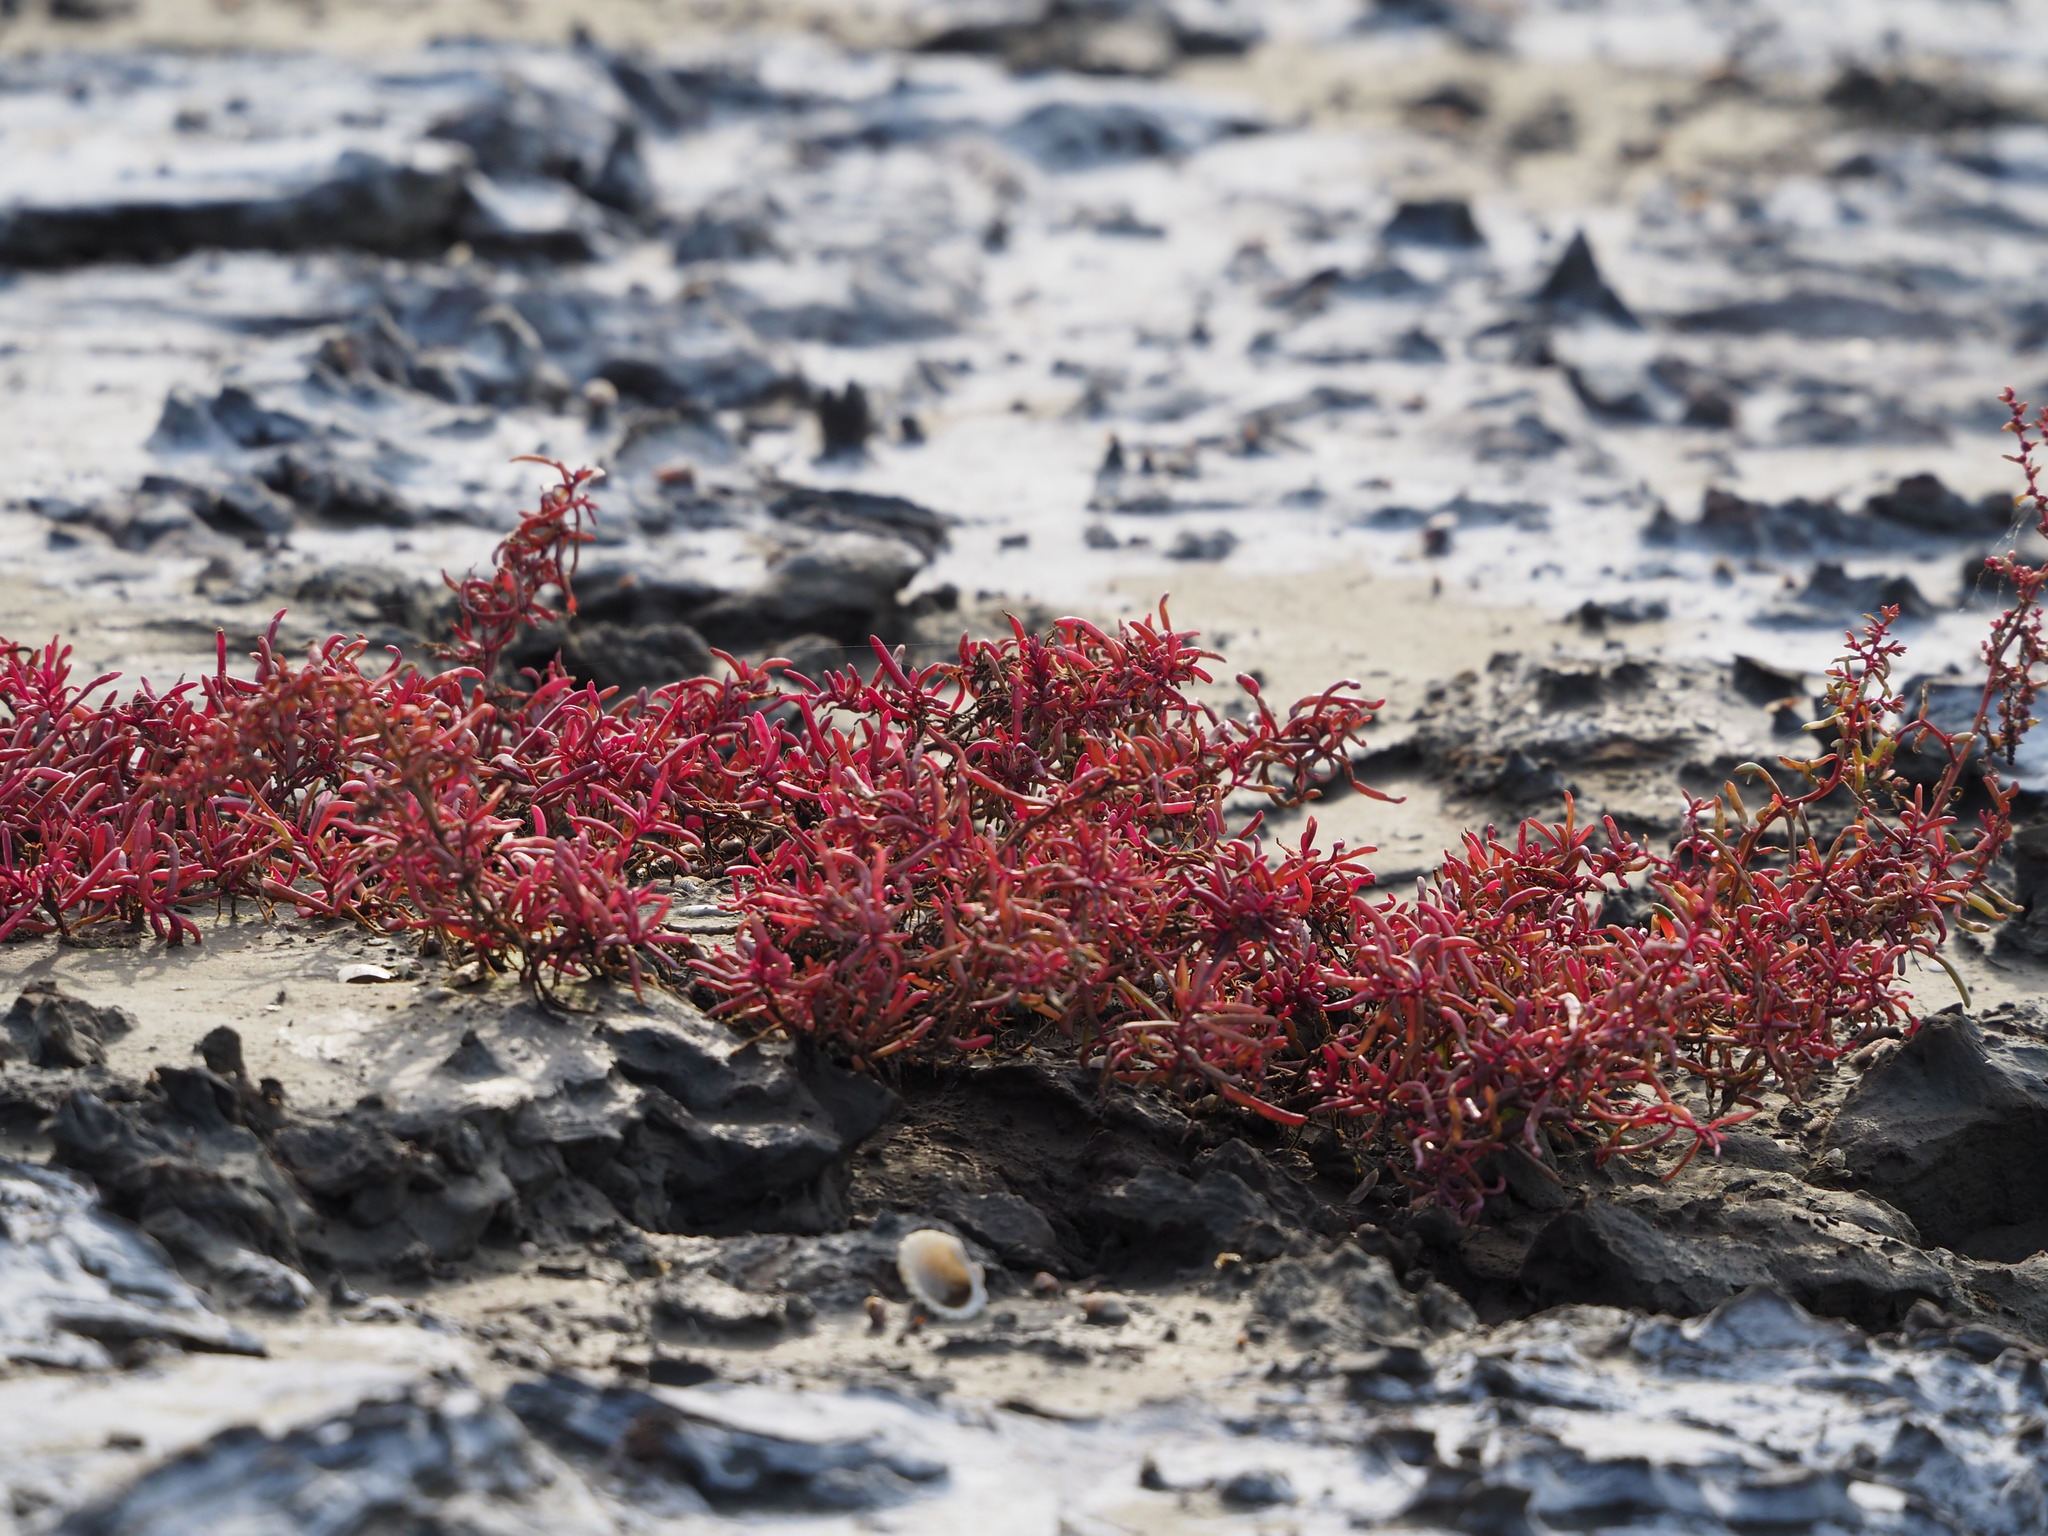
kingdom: Plantae
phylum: Tracheophyta
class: Magnoliopsida
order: Caryophyllales
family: Amaranthaceae
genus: Suaeda
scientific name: Suaeda maritima
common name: Annual sea-blite
